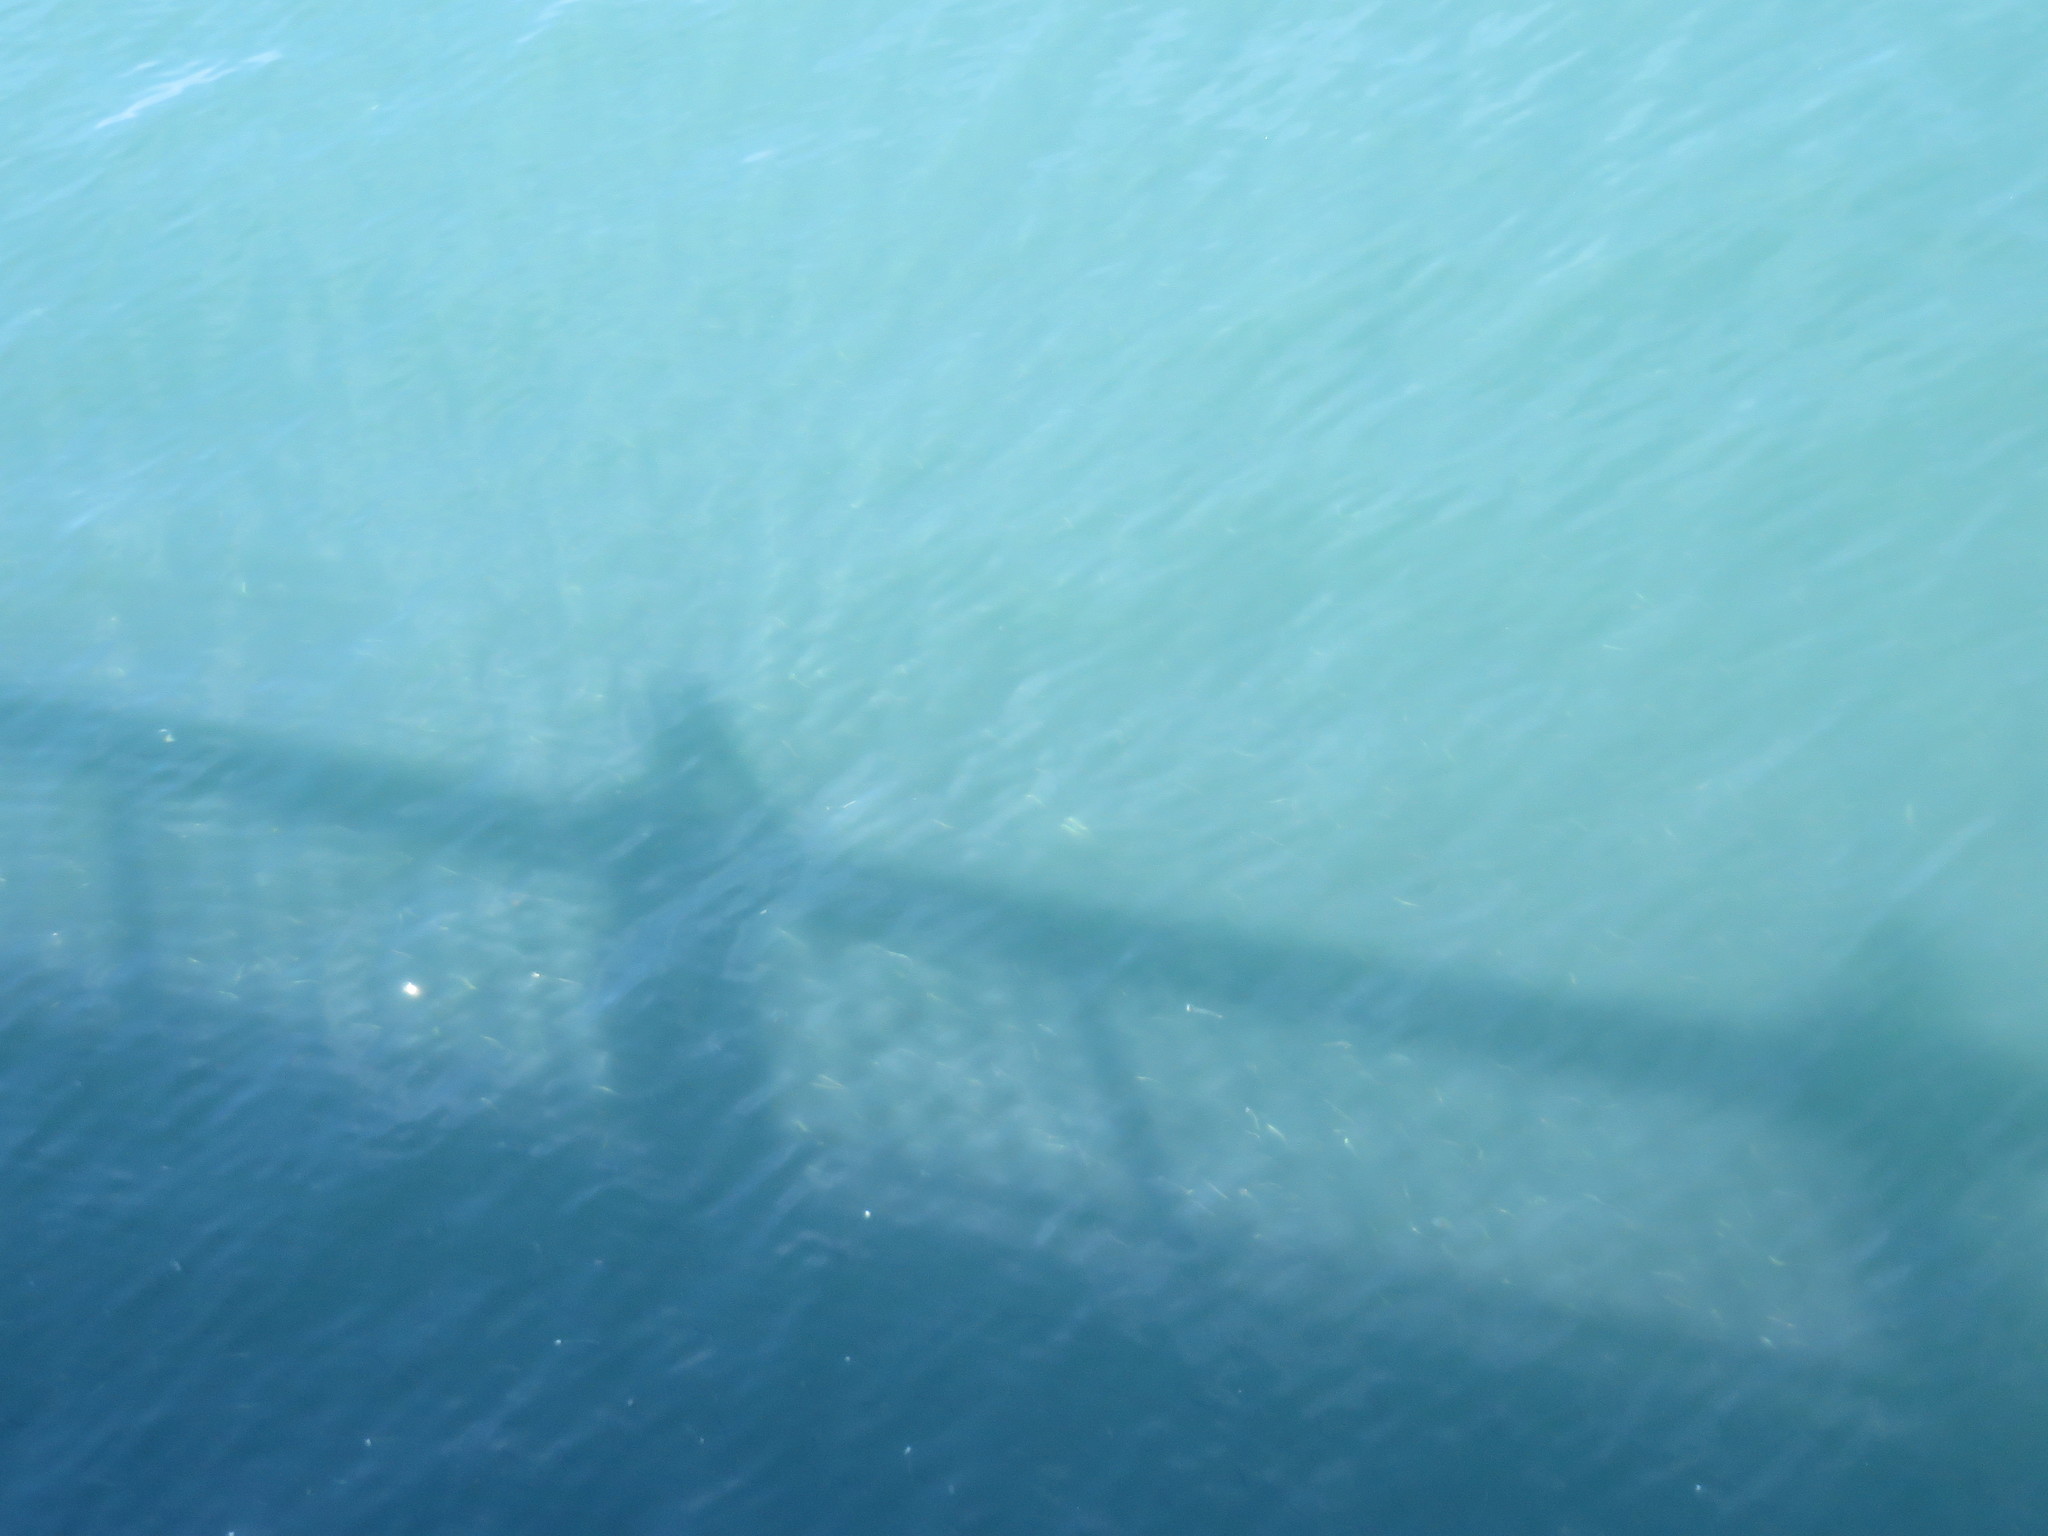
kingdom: Animalia
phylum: Chordata
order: Clupeiformes
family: Engraulidae
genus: Engraulis
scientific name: Engraulis mordax
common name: Northern anchovy
